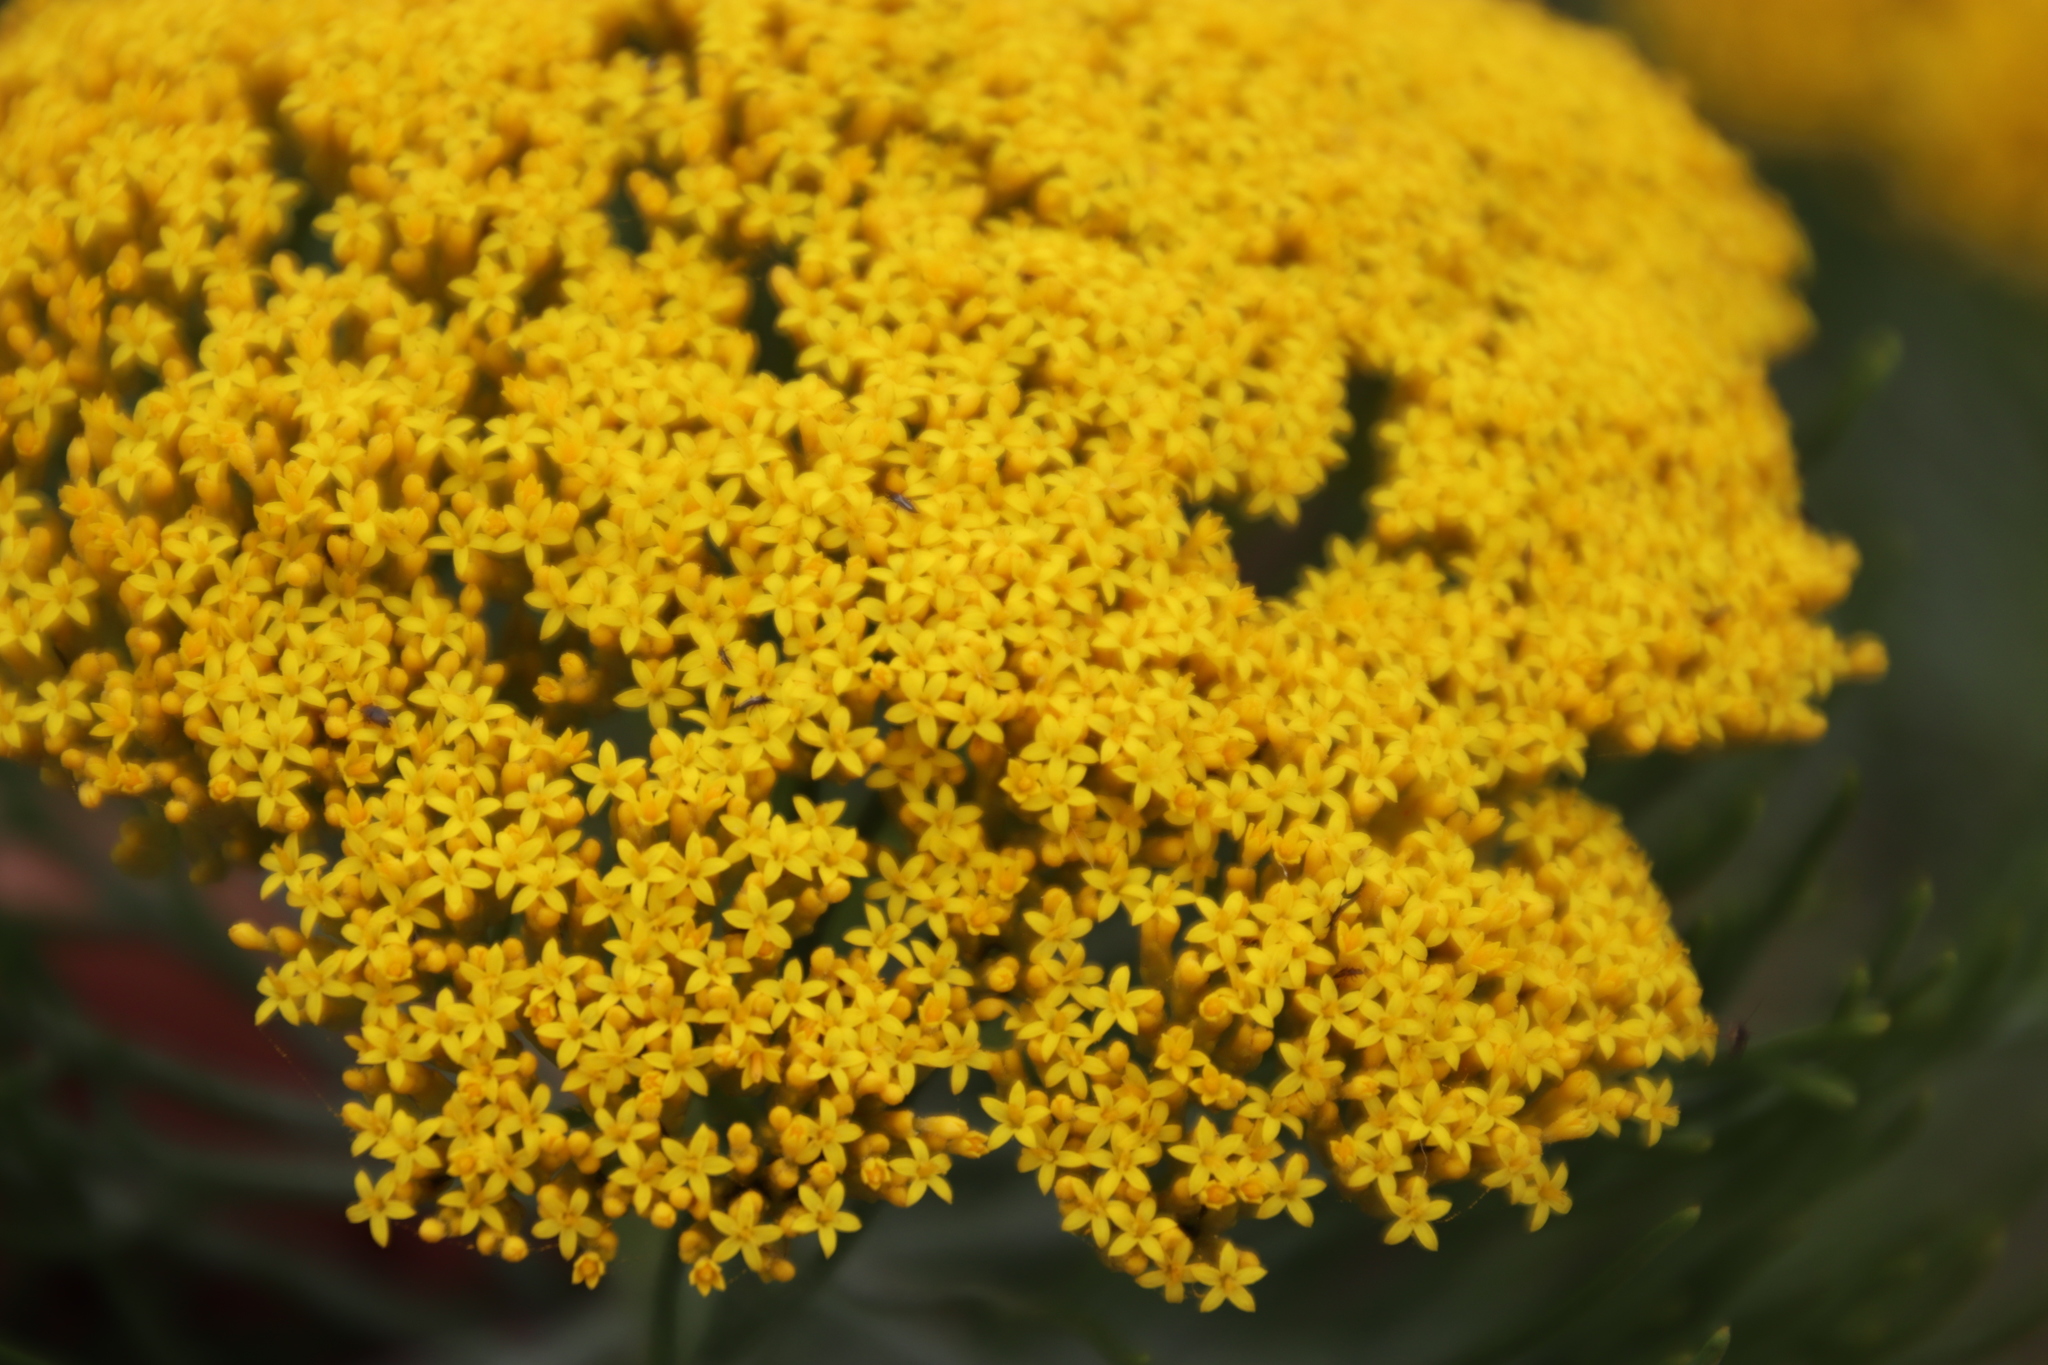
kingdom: Plantae
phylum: Tracheophyta
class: Magnoliopsida
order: Asterales
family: Asteraceae
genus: Hymenolepis
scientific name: Hymenolepis crithmifolia
